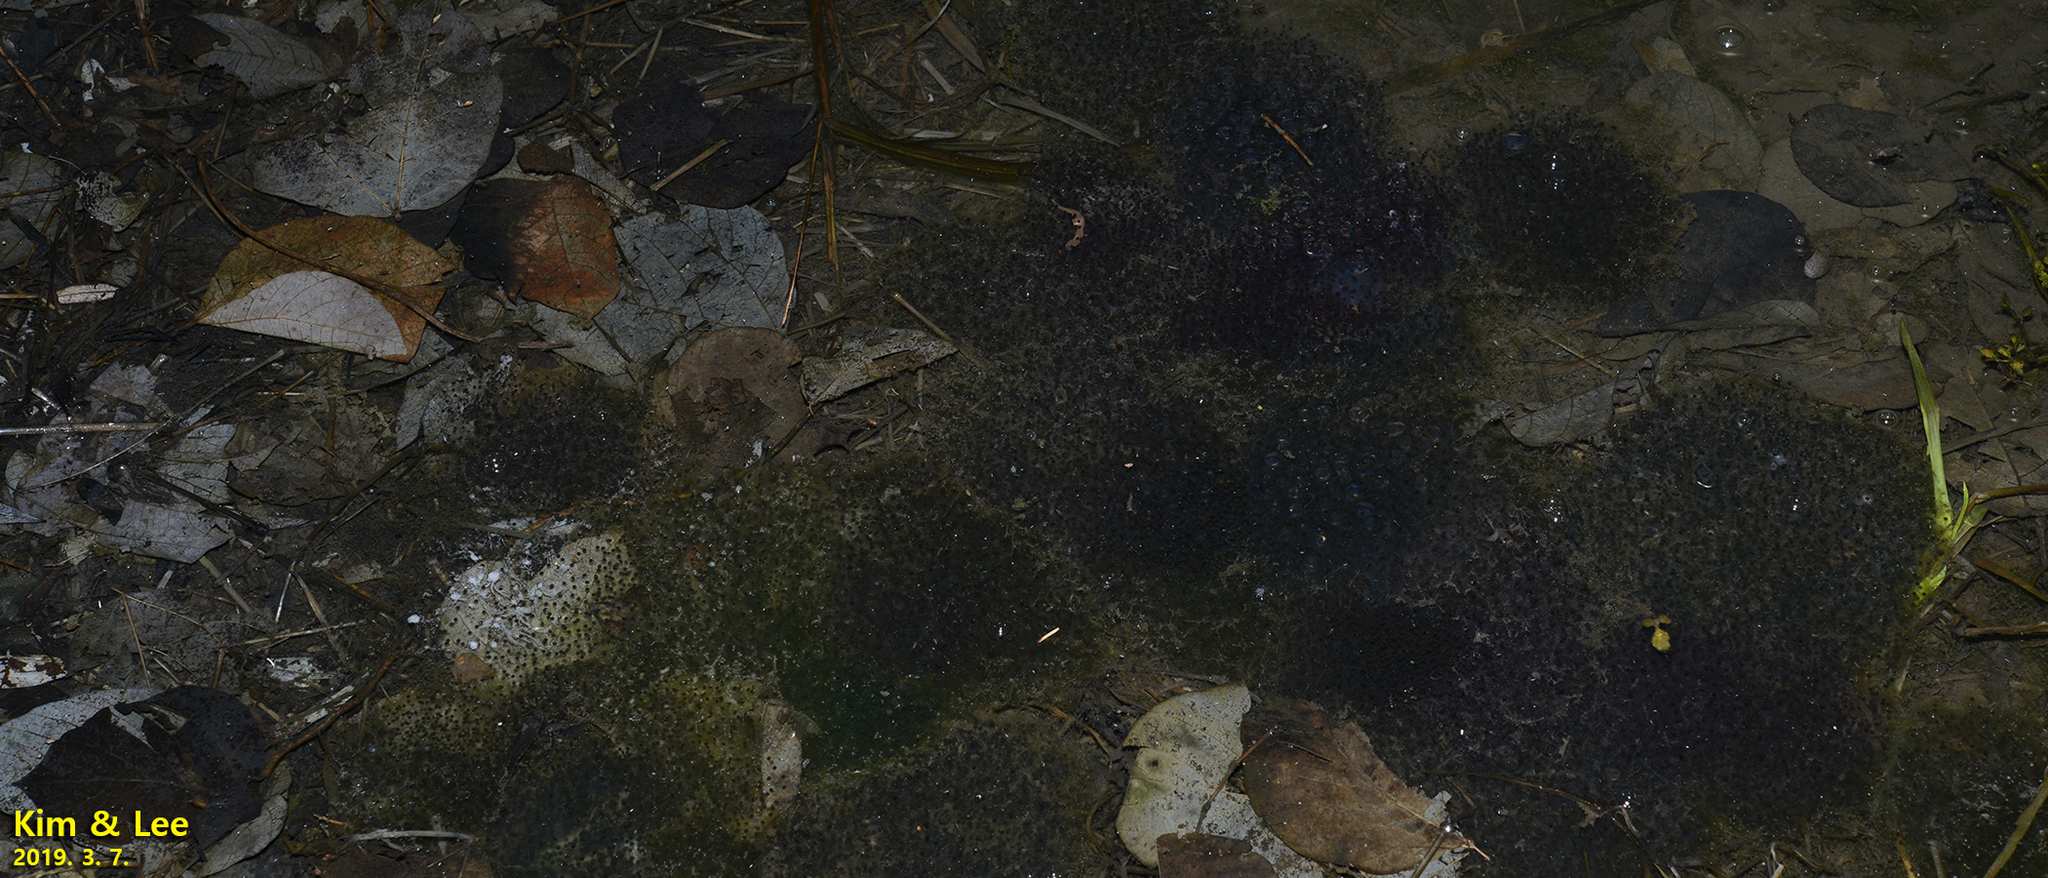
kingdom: Animalia
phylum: Chordata
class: Amphibia
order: Anura
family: Ranidae
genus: Rana
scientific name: Rana uenoi
